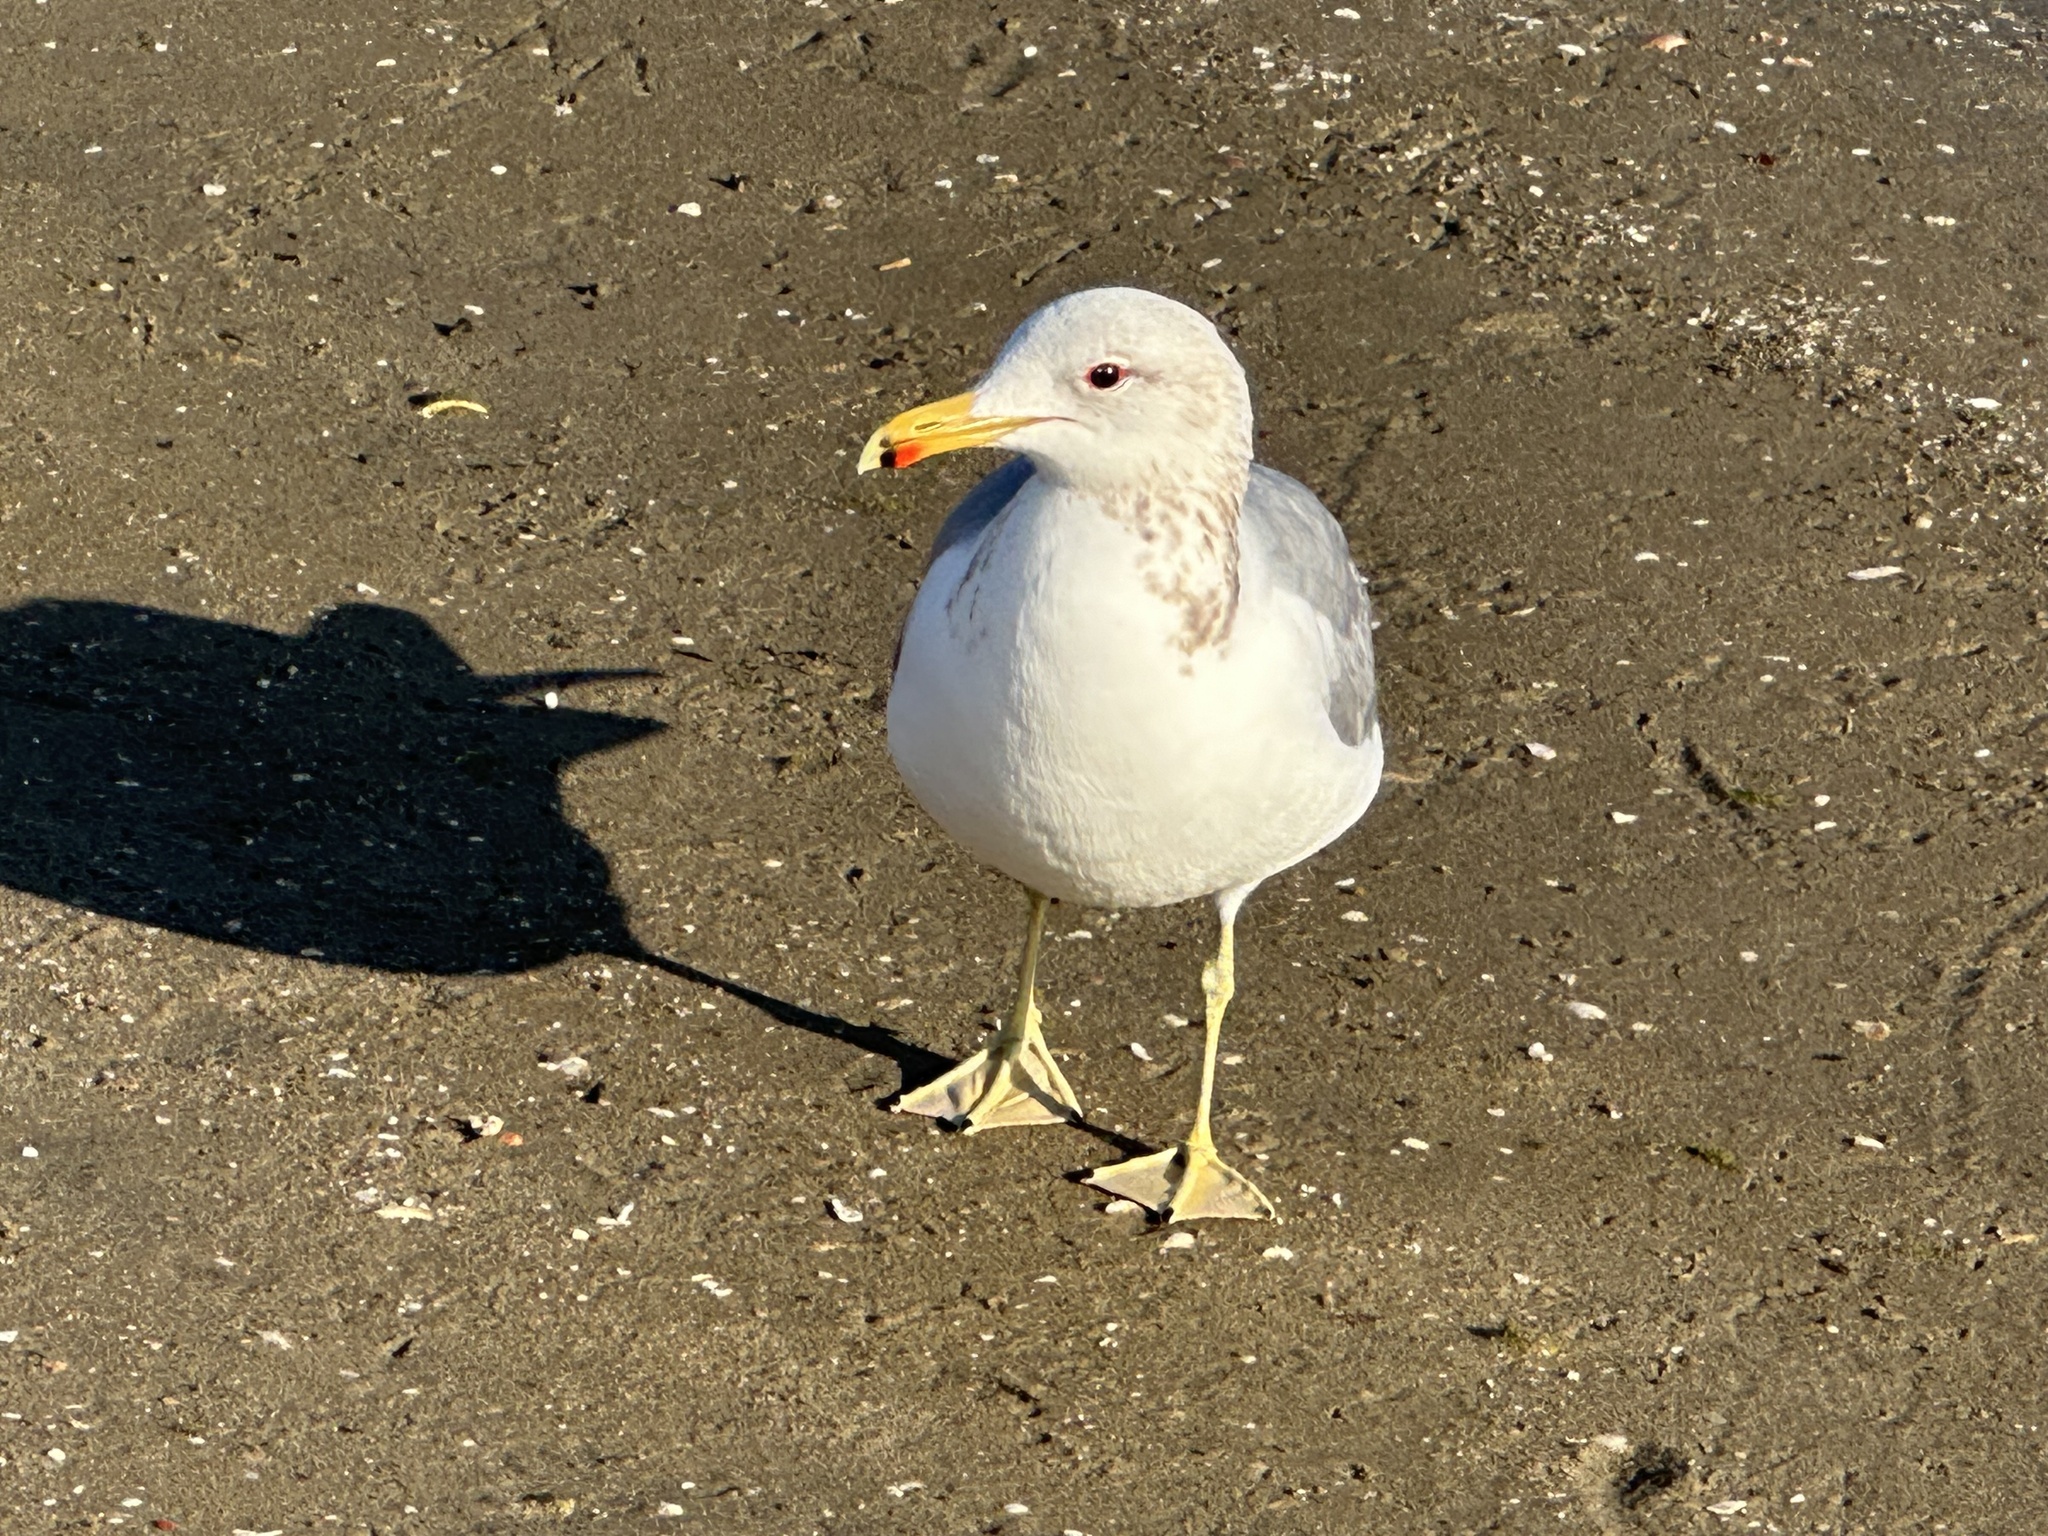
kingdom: Animalia
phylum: Chordata
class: Aves
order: Charadriiformes
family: Laridae
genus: Larus
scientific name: Larus californicus
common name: California gull
